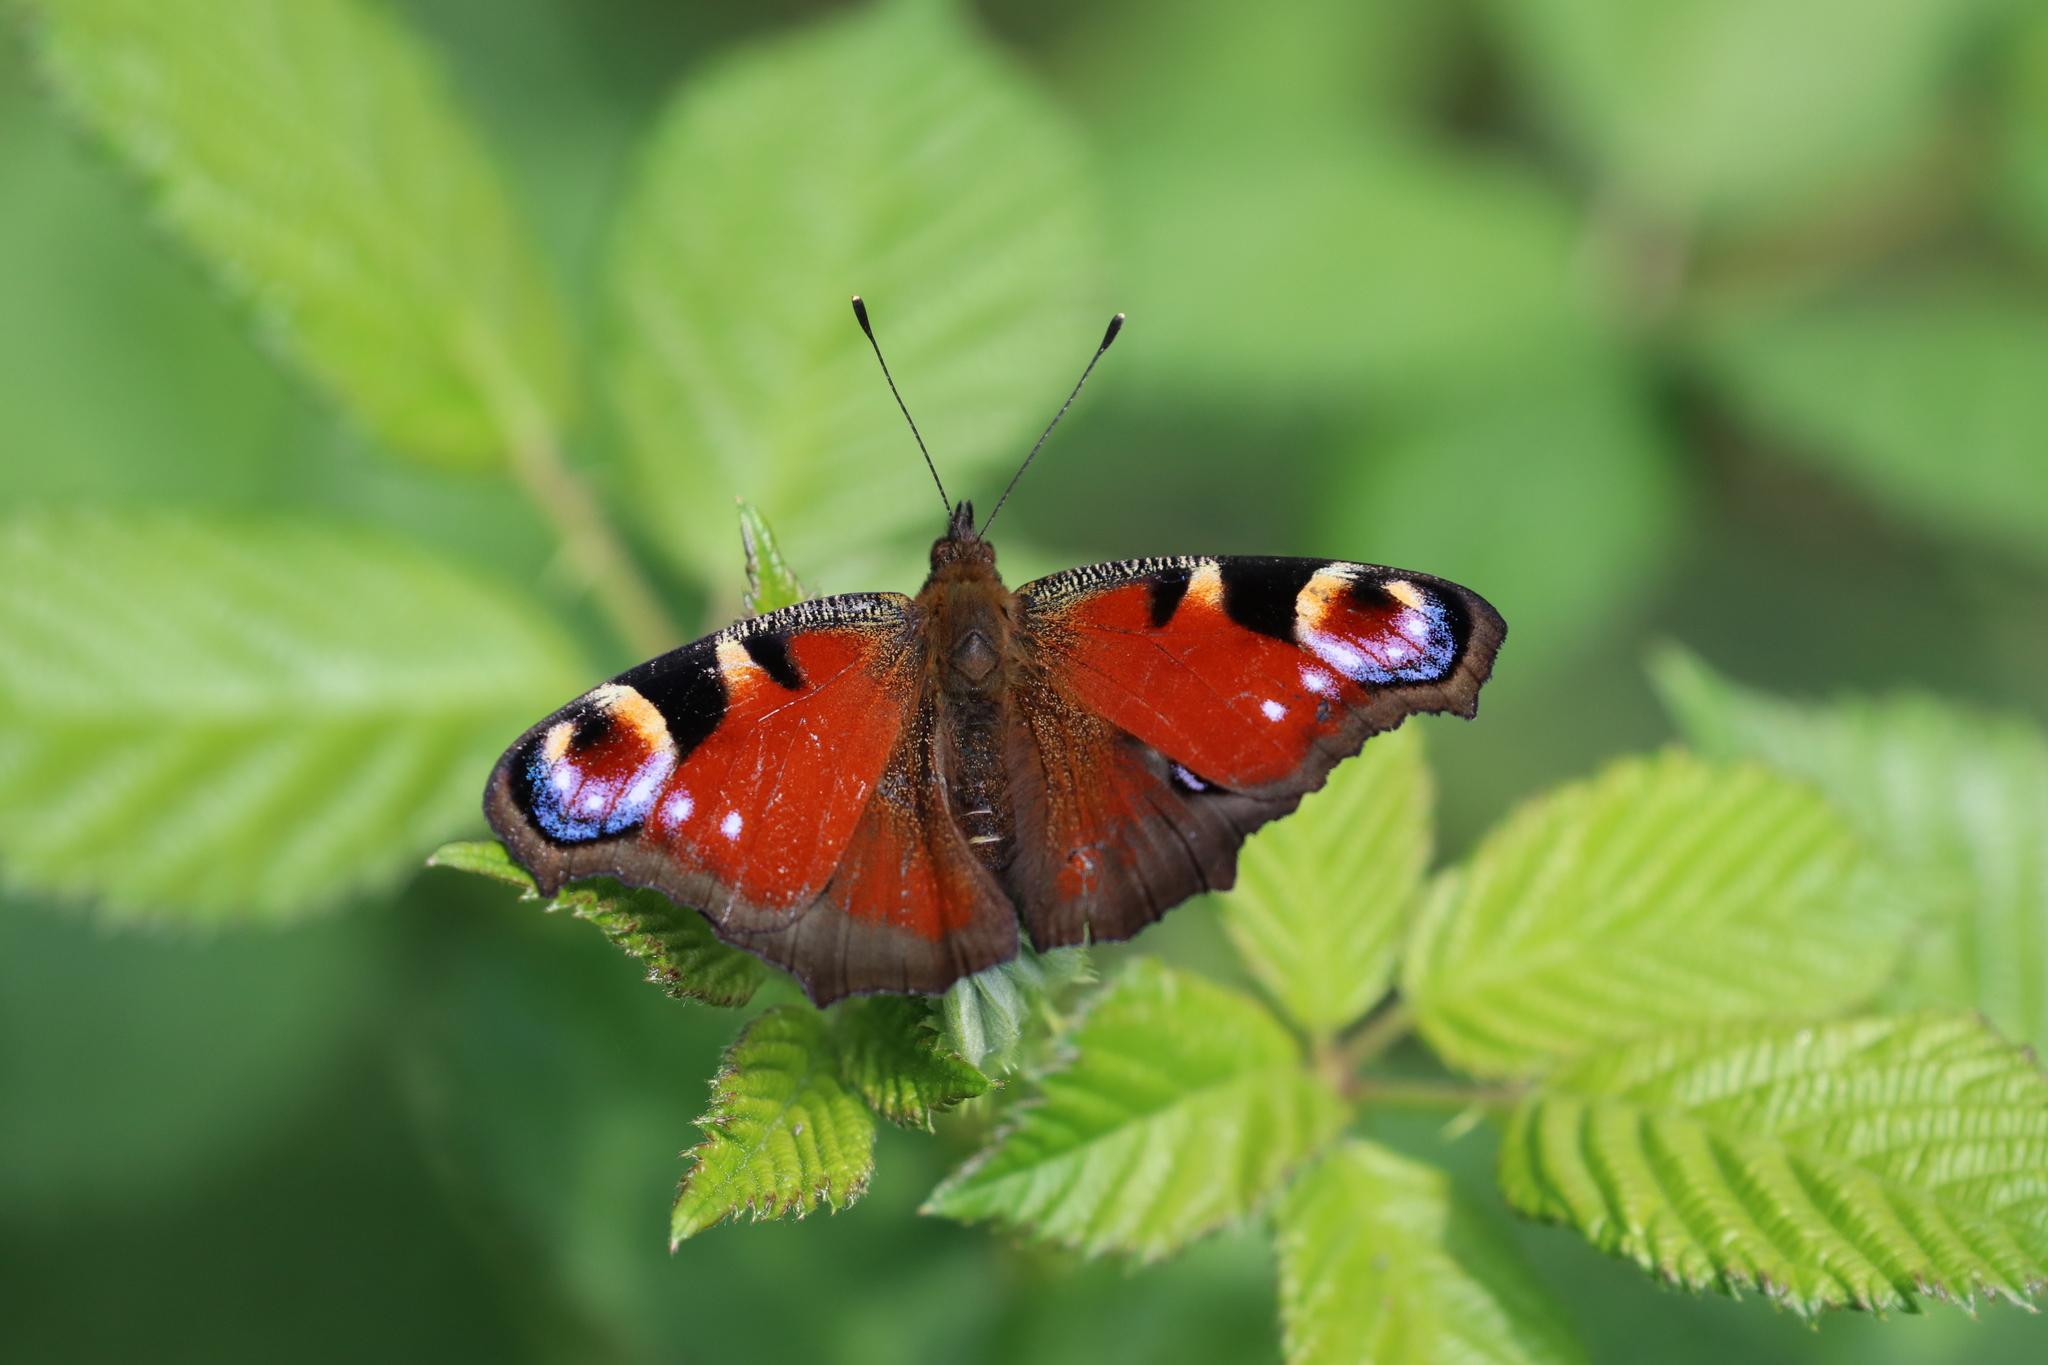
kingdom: Animalia
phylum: Arthropoda
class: Insecta
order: Lepidoptera
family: Nymphalidae
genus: Aglais
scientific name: Aglais io
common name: Peacock
